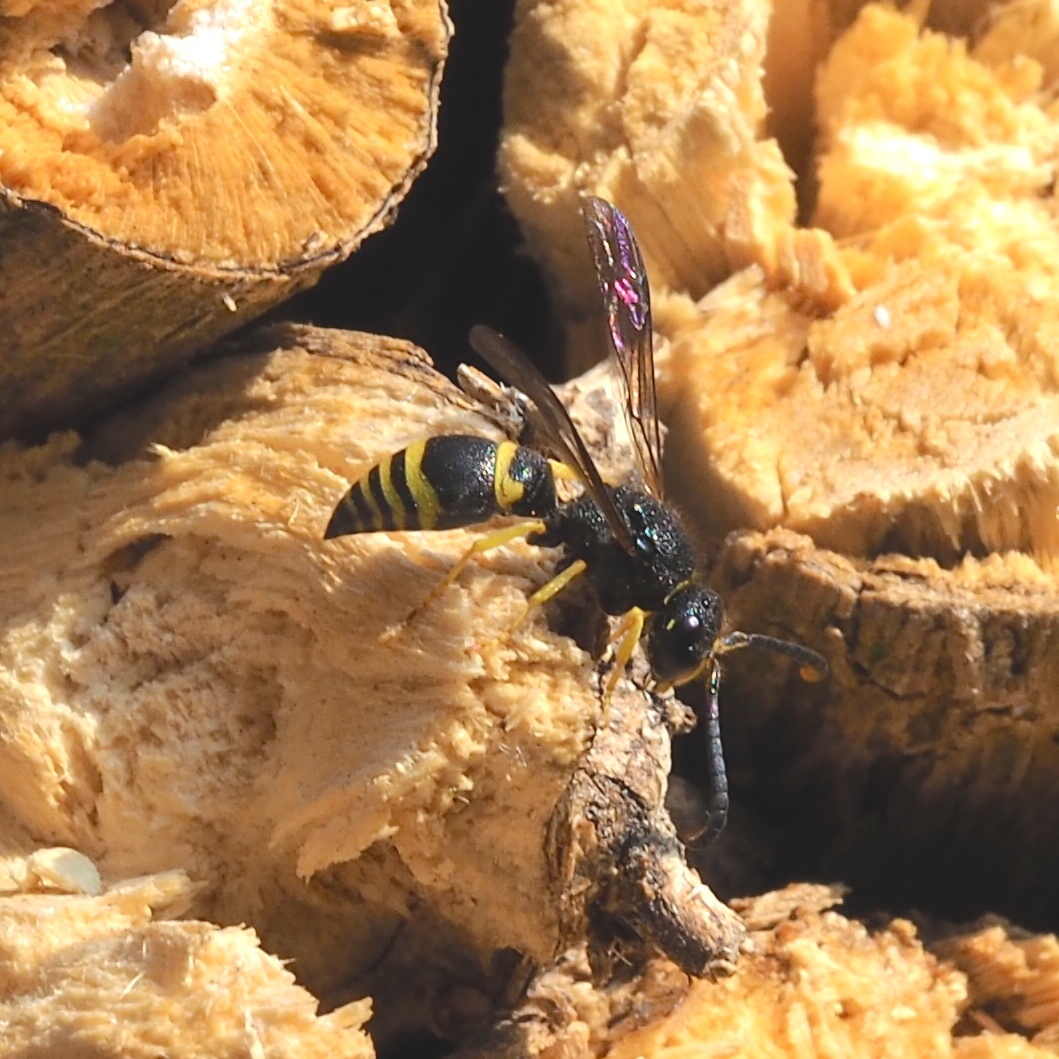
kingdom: Animalia
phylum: Arthropoda
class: Insecta
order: Hymenoptera
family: Vespidae
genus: Ancistrocerus
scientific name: Ancistrocerus nigricornis
